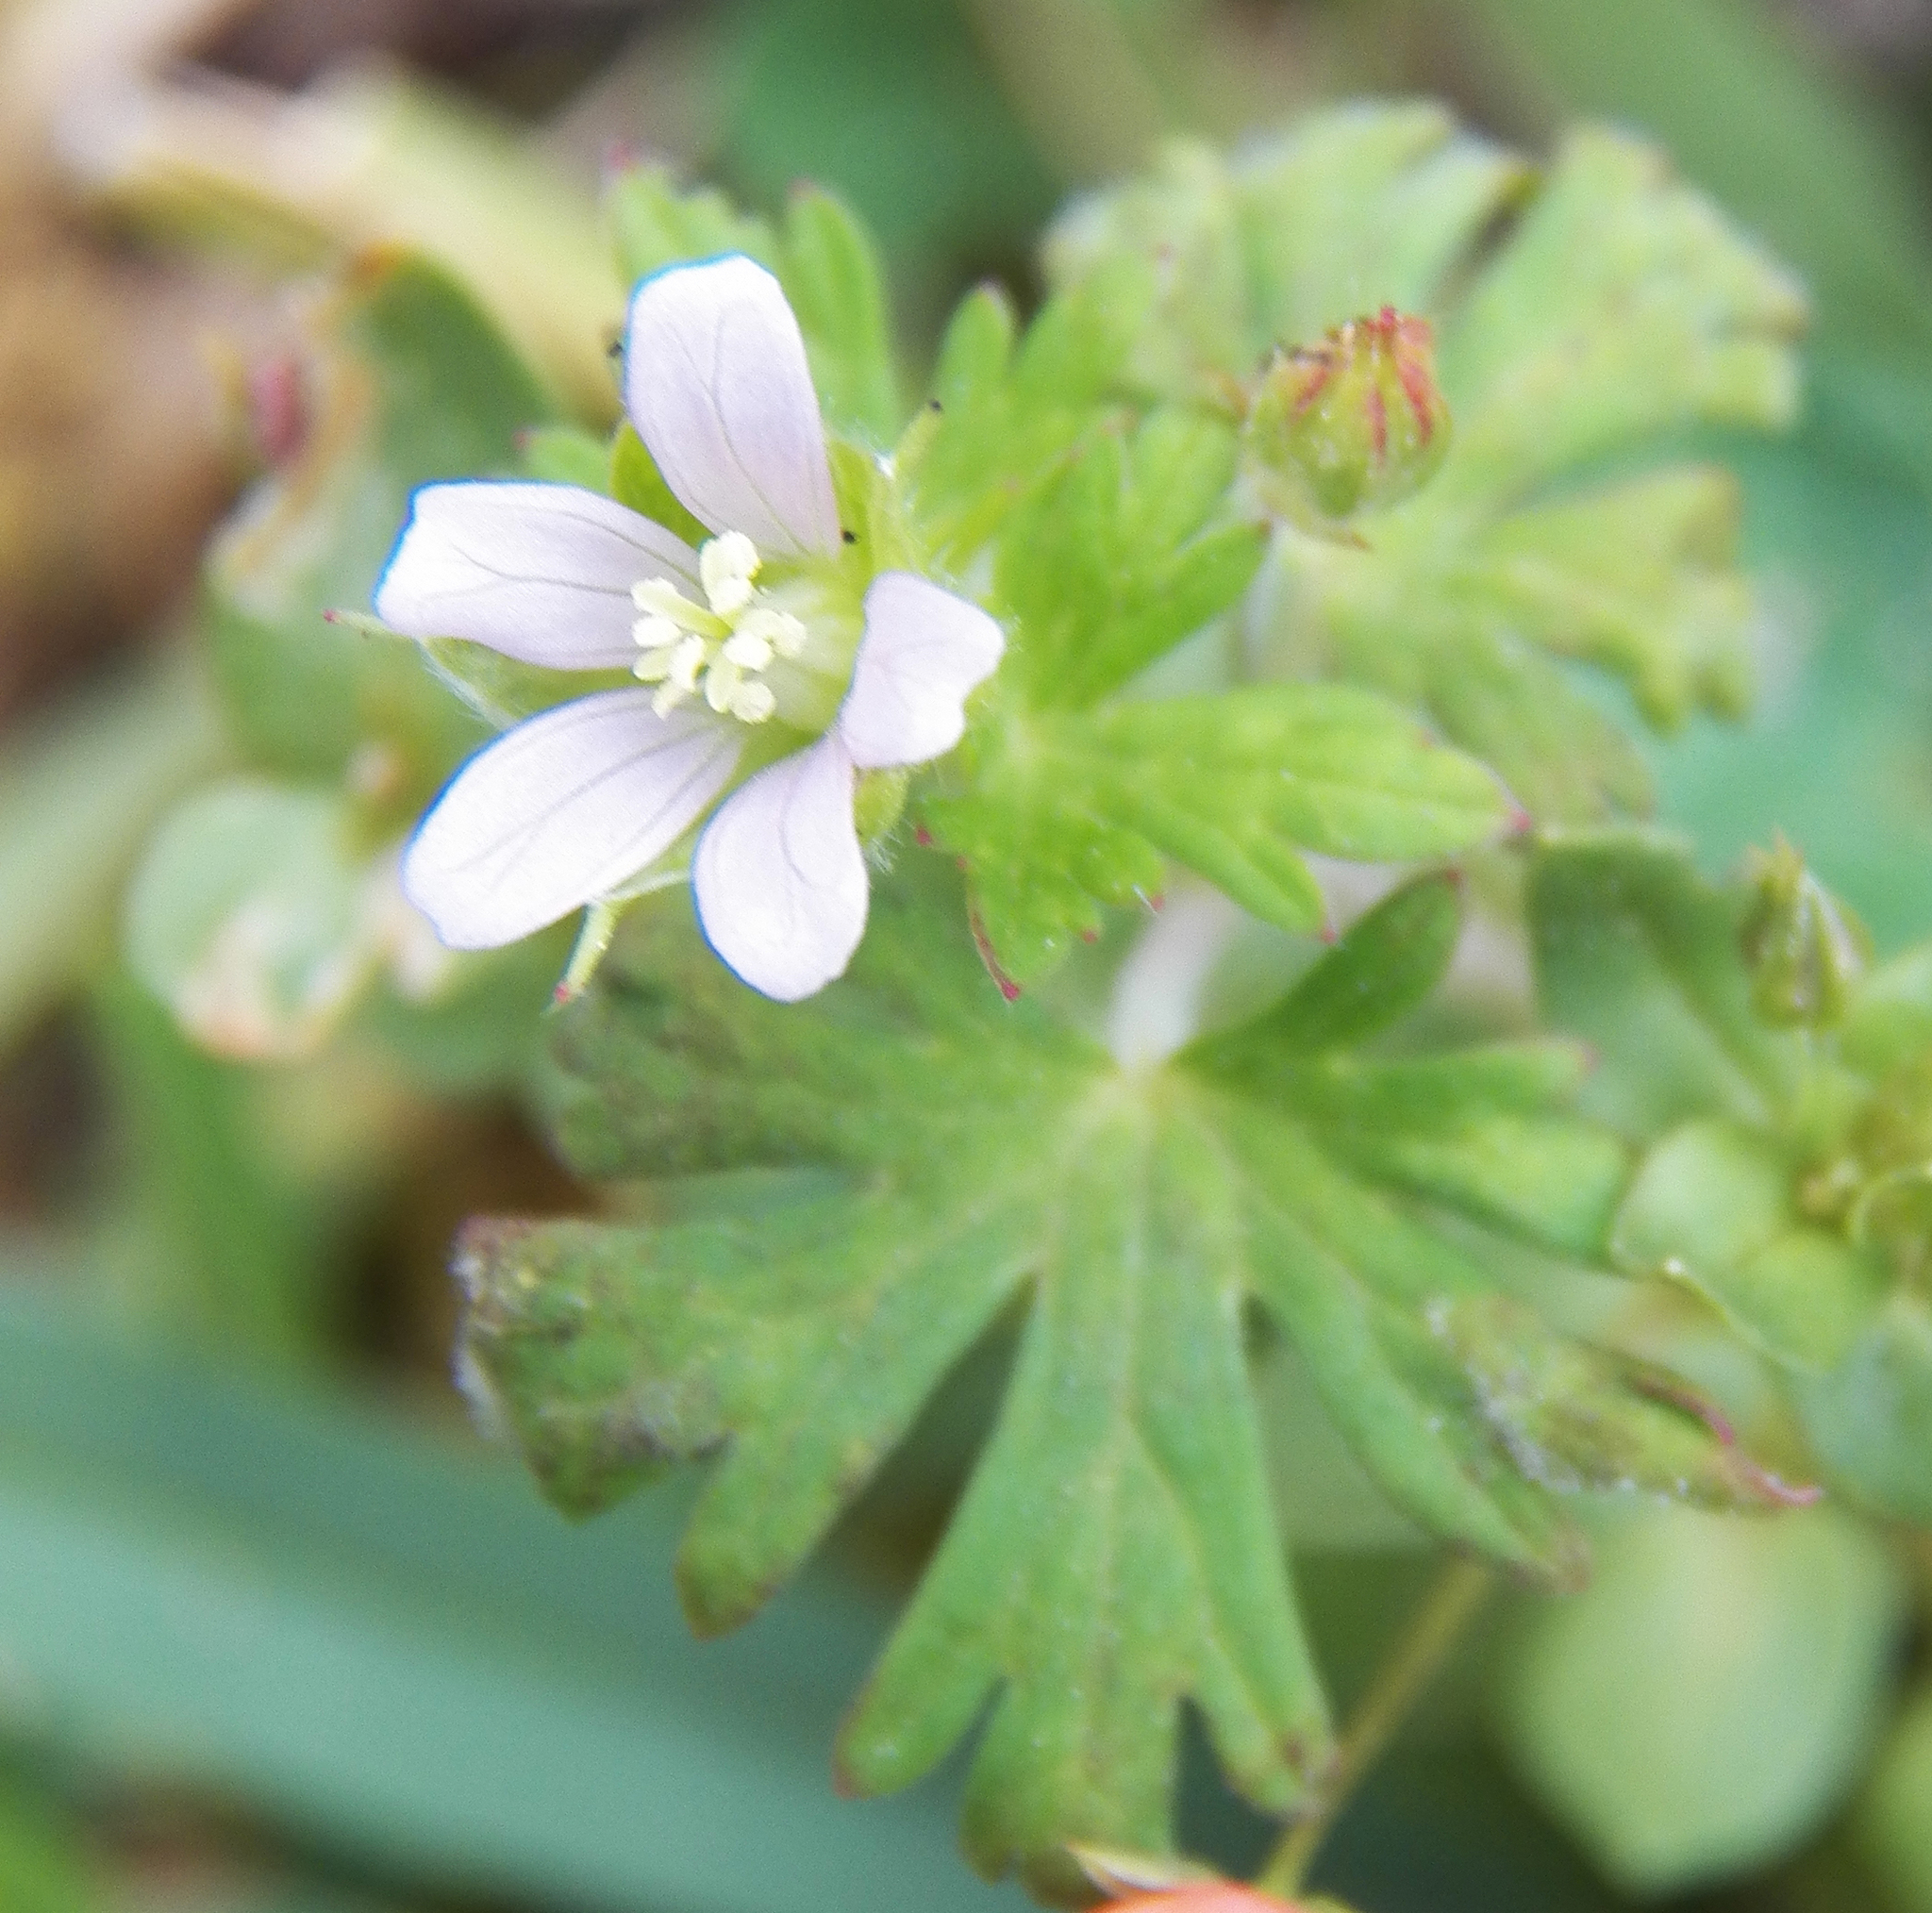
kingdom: Plantae
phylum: Tracheophyta
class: Magnoliopsida
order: Geraniales
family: Geraniaceae
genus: Geranium
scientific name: Geranium carolinianum
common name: Carolina crane's-bill
